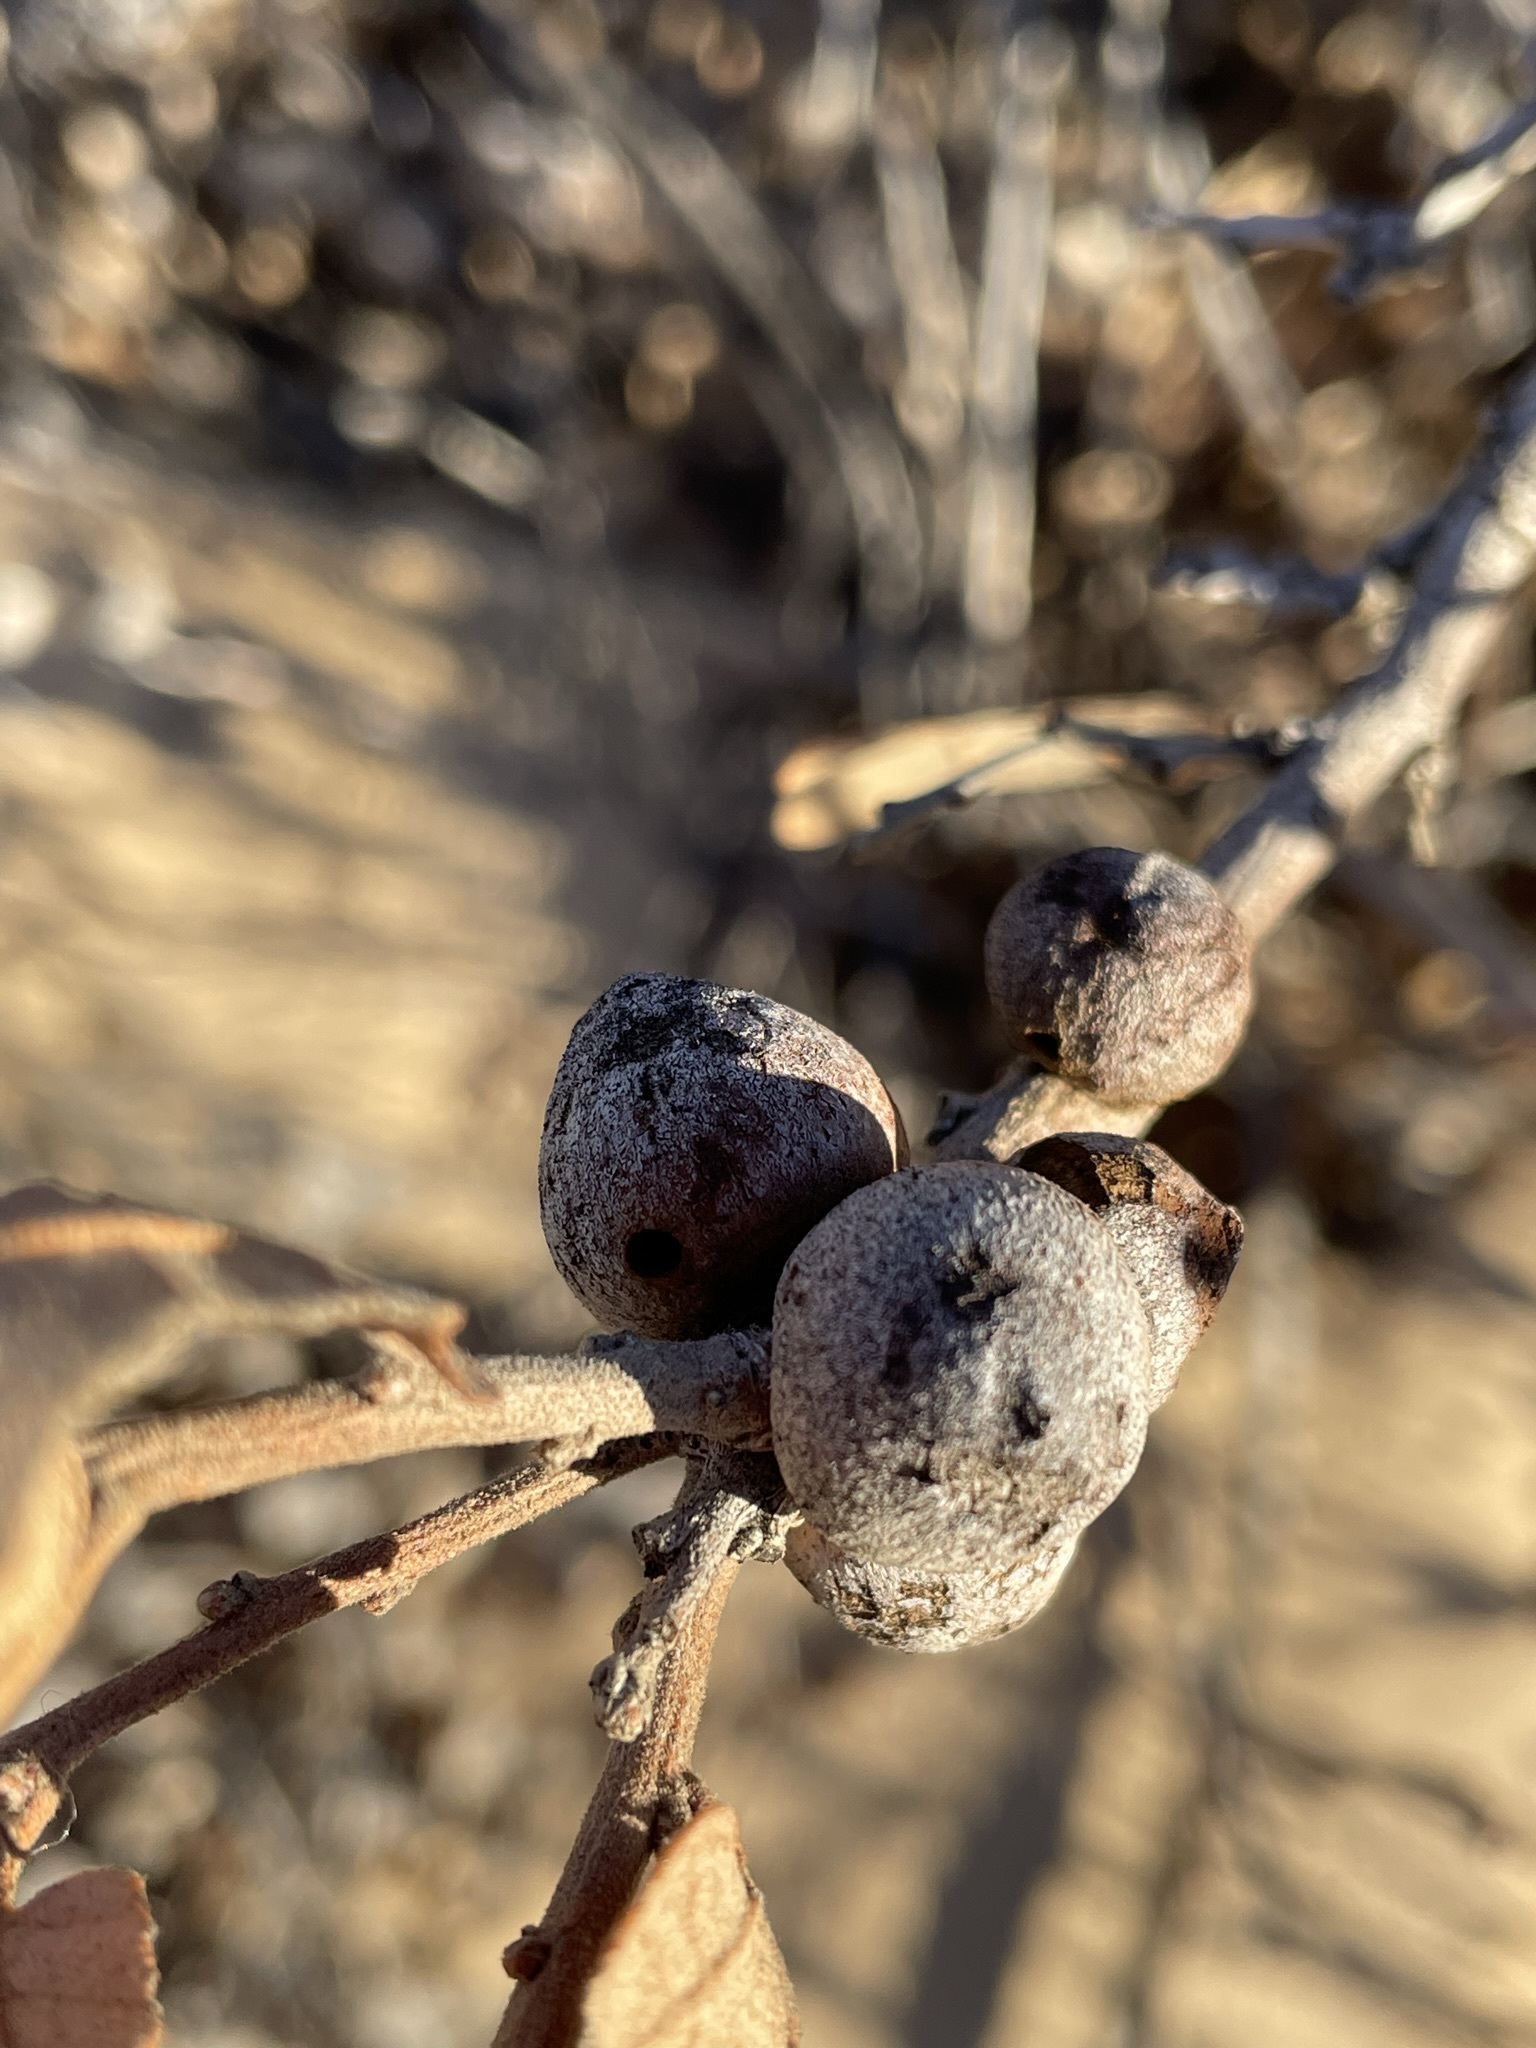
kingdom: Animalia
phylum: Arthropoda
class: Insecta
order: Hymenoptera
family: Cynipidae
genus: Disholcaspis
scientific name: Disholcaspis erugomamma
